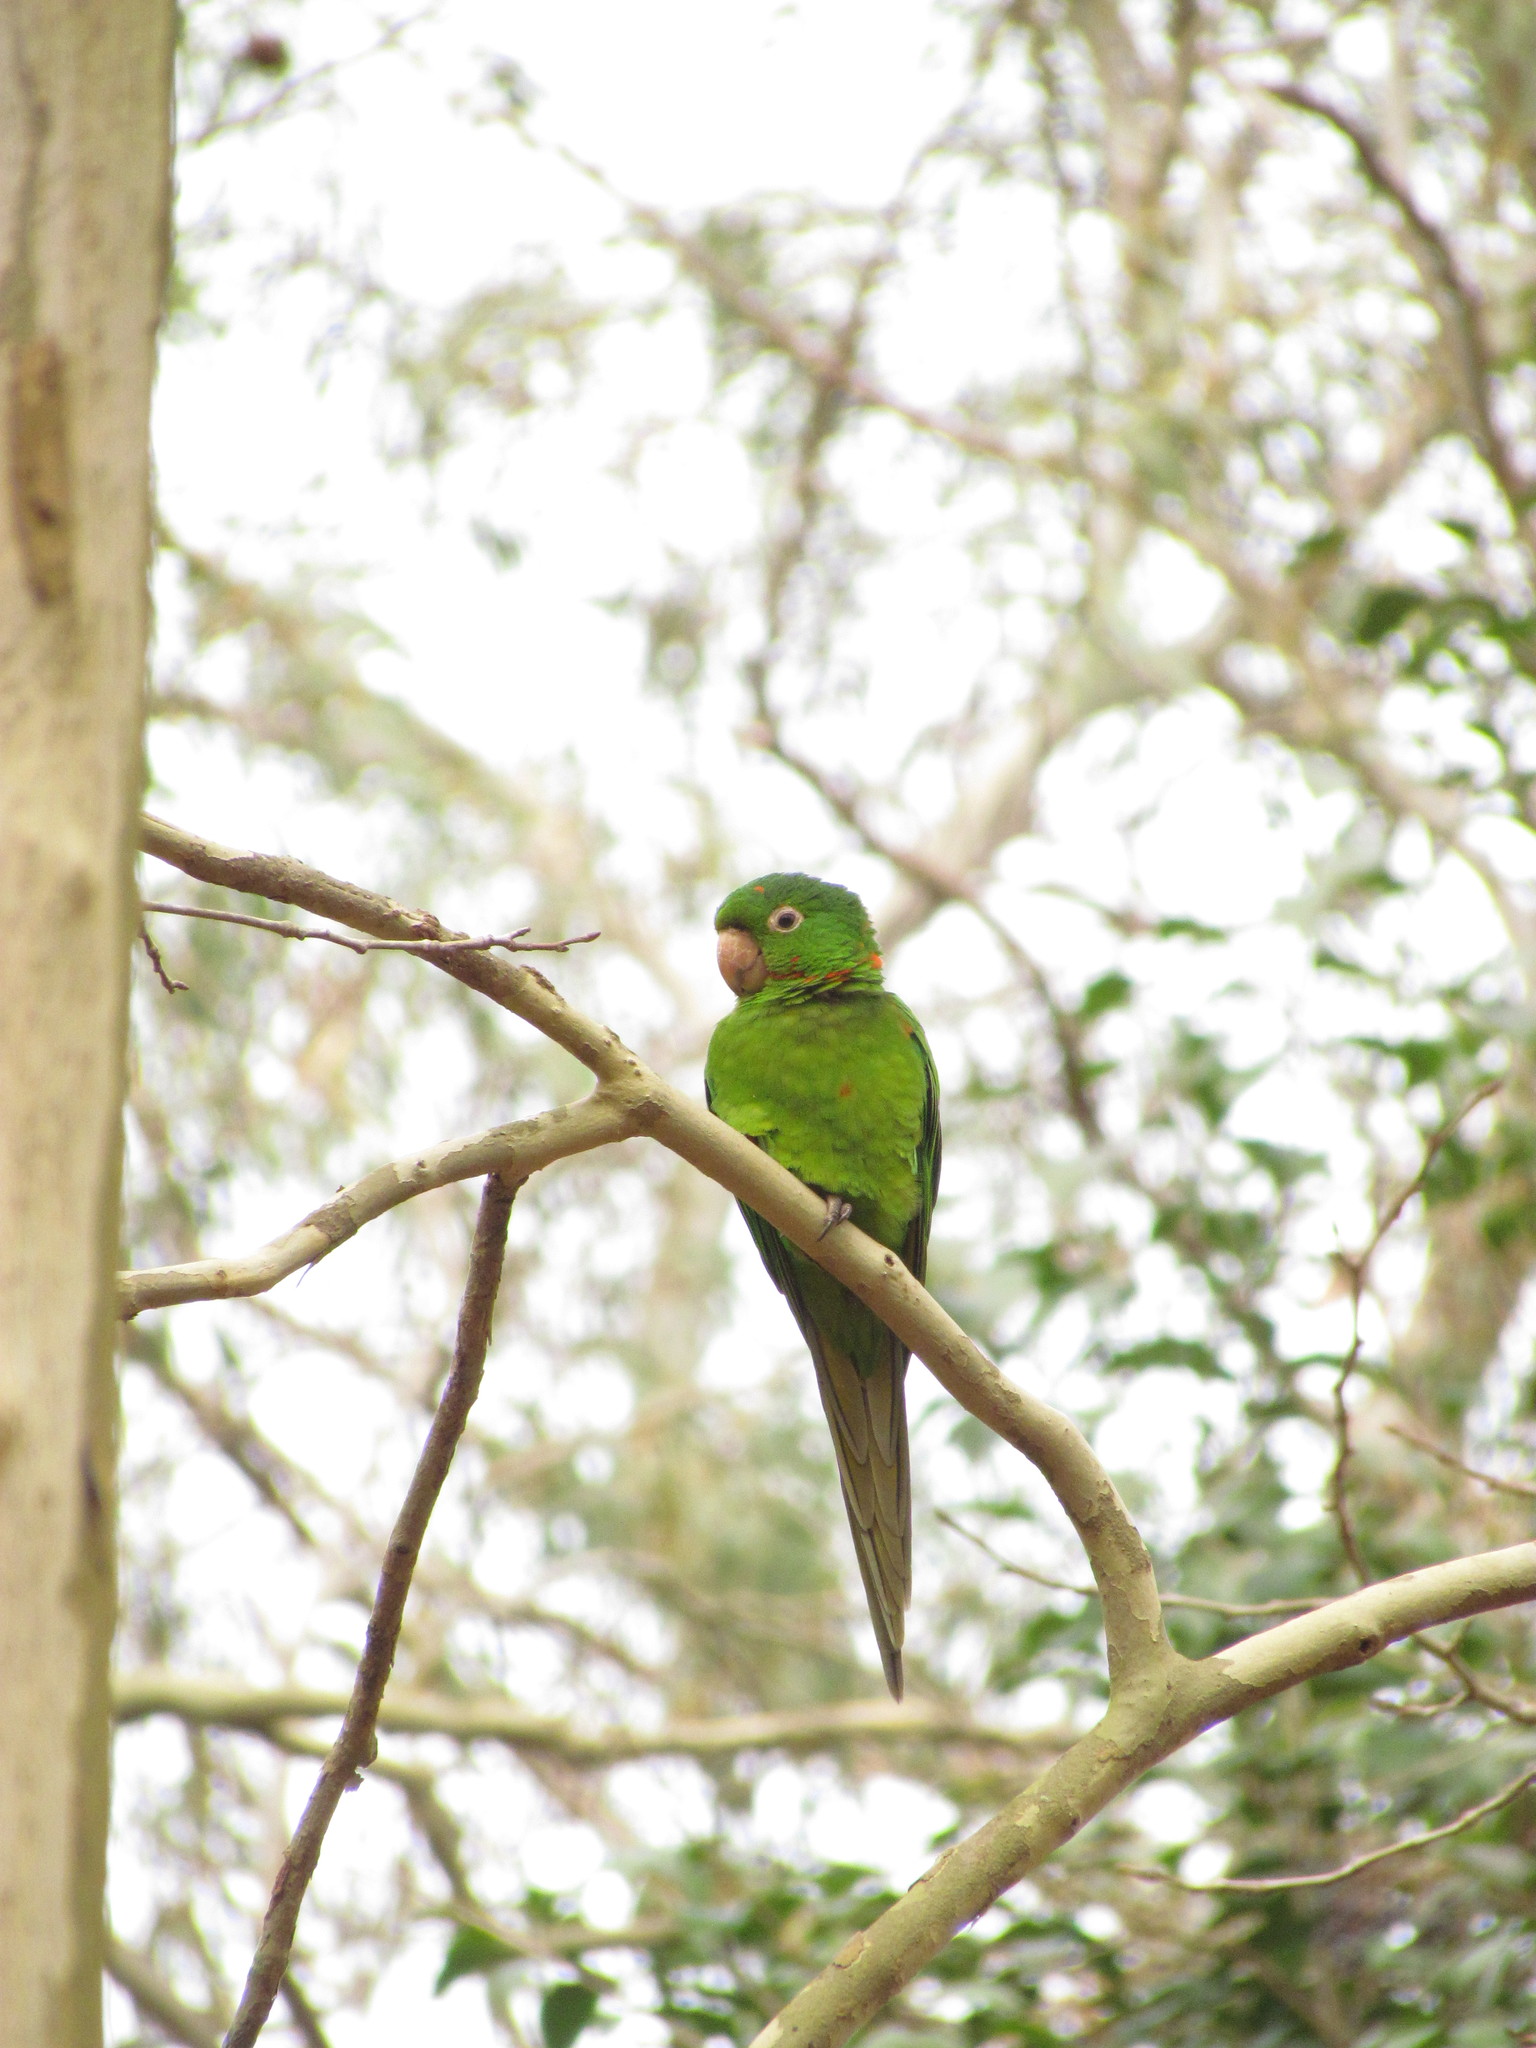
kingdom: Animalia
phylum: Chordata
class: Aves
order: Psittaciformes
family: Psittacidae
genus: Aratinga
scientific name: Aratinga leucophthalma
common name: White-eyed parakeet
